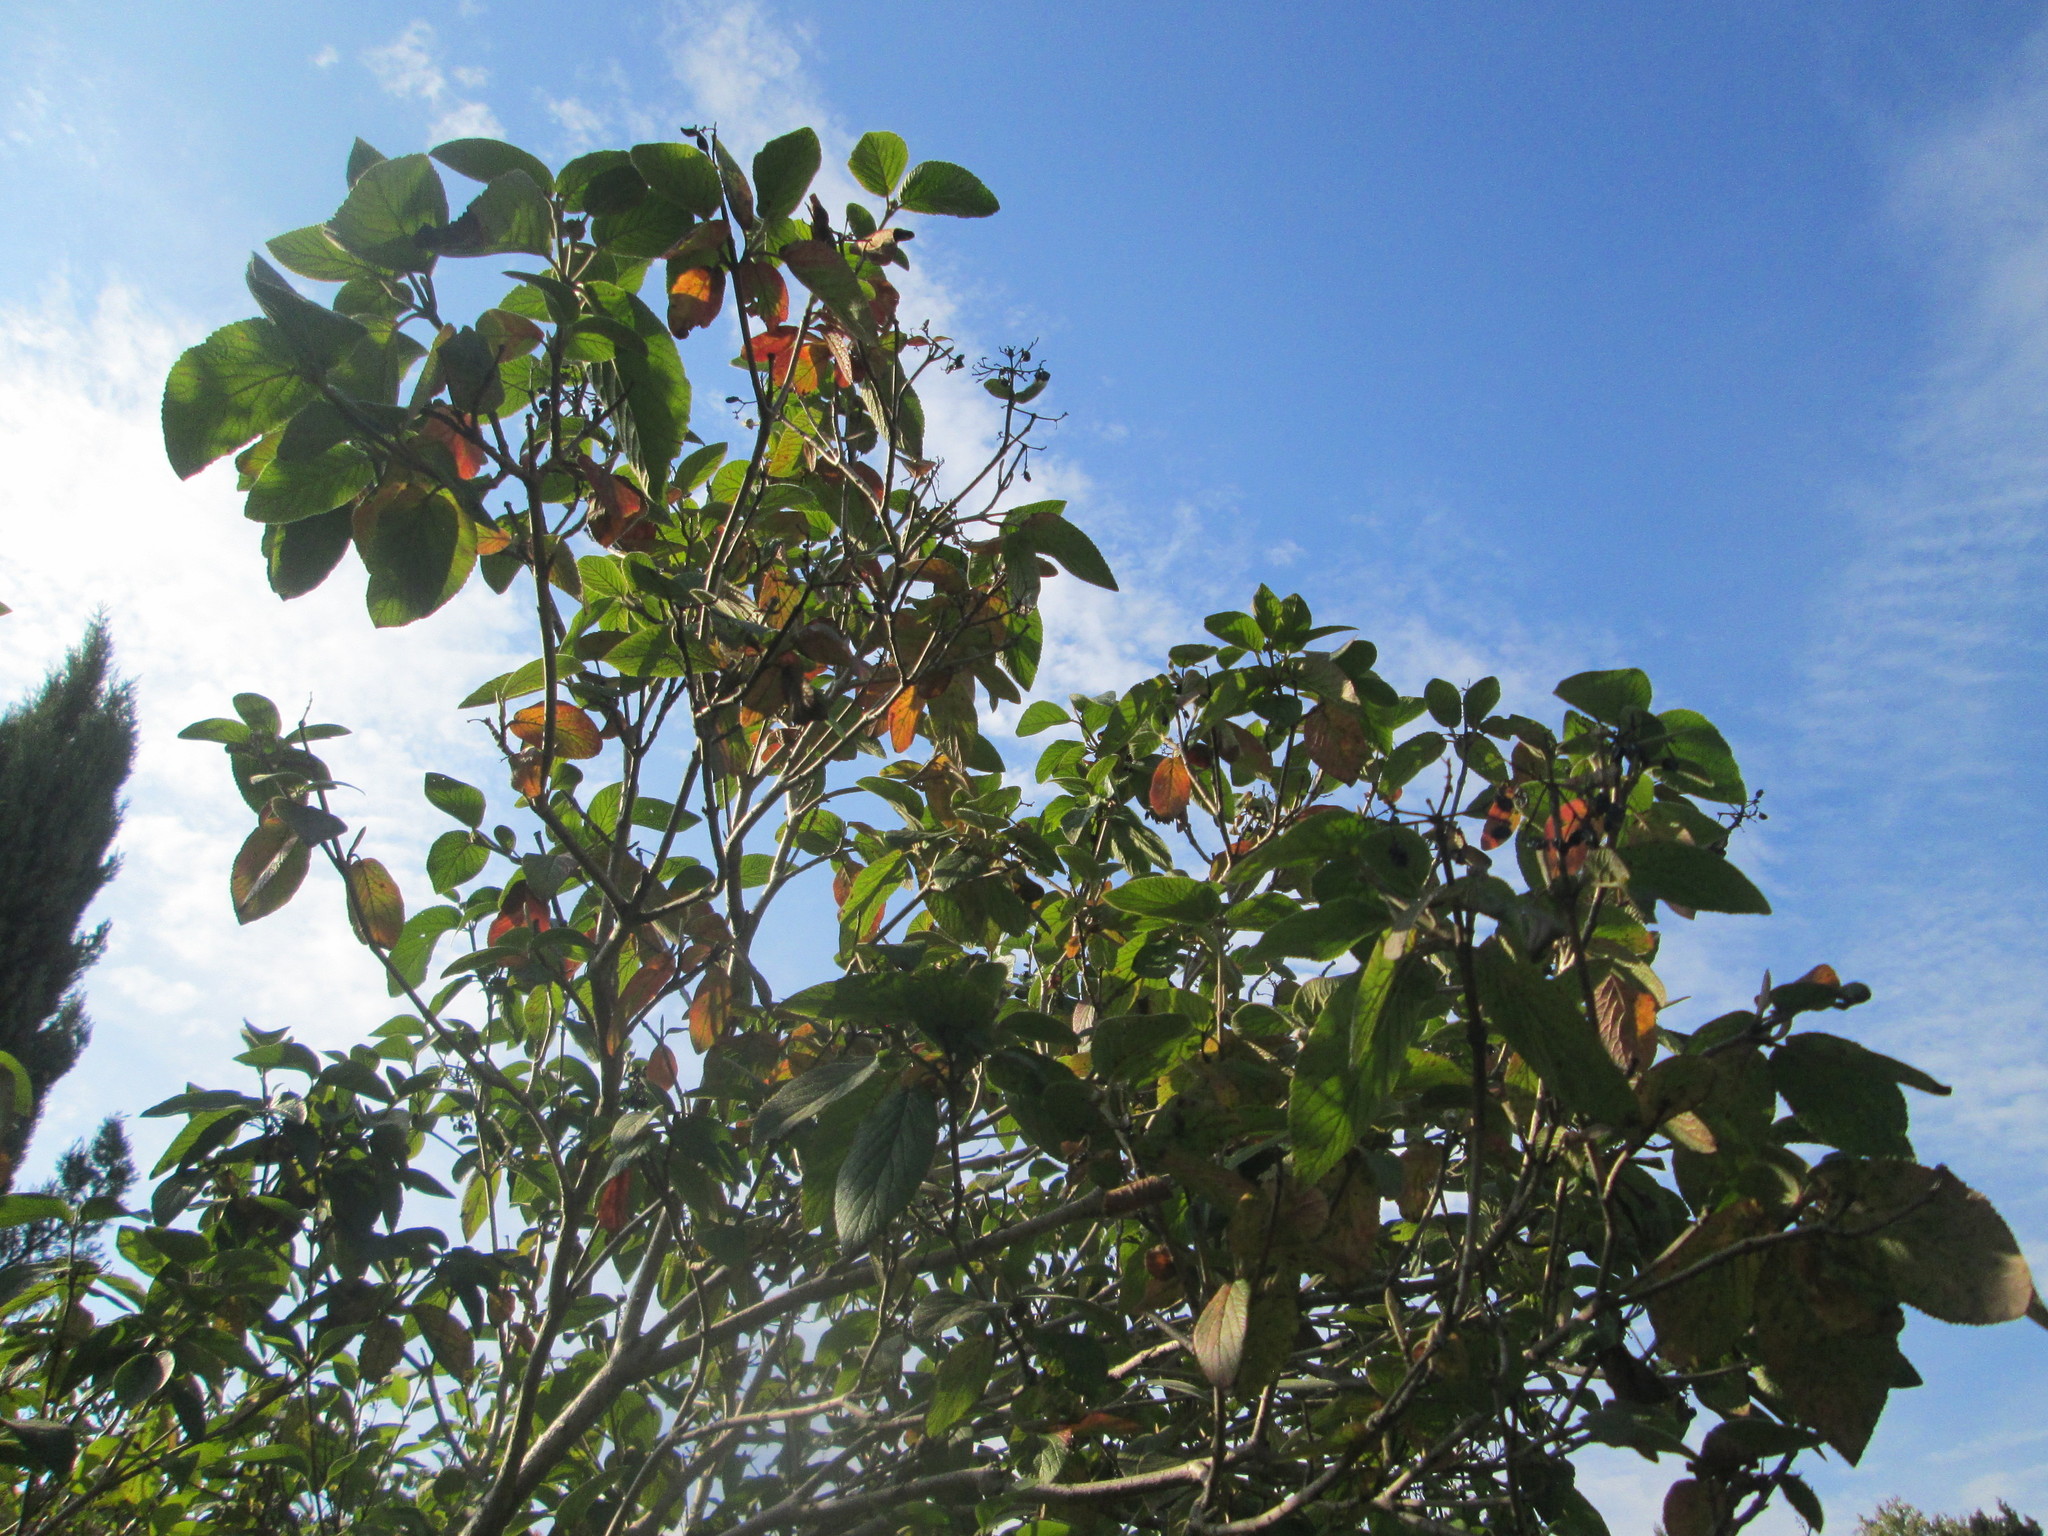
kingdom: Plantae
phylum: Tracheophyta
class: Magnoliopsida
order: Dipsacales
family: Viburnaceae
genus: Viburnum
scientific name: Viburnum lantana
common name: Wayfaring tree
